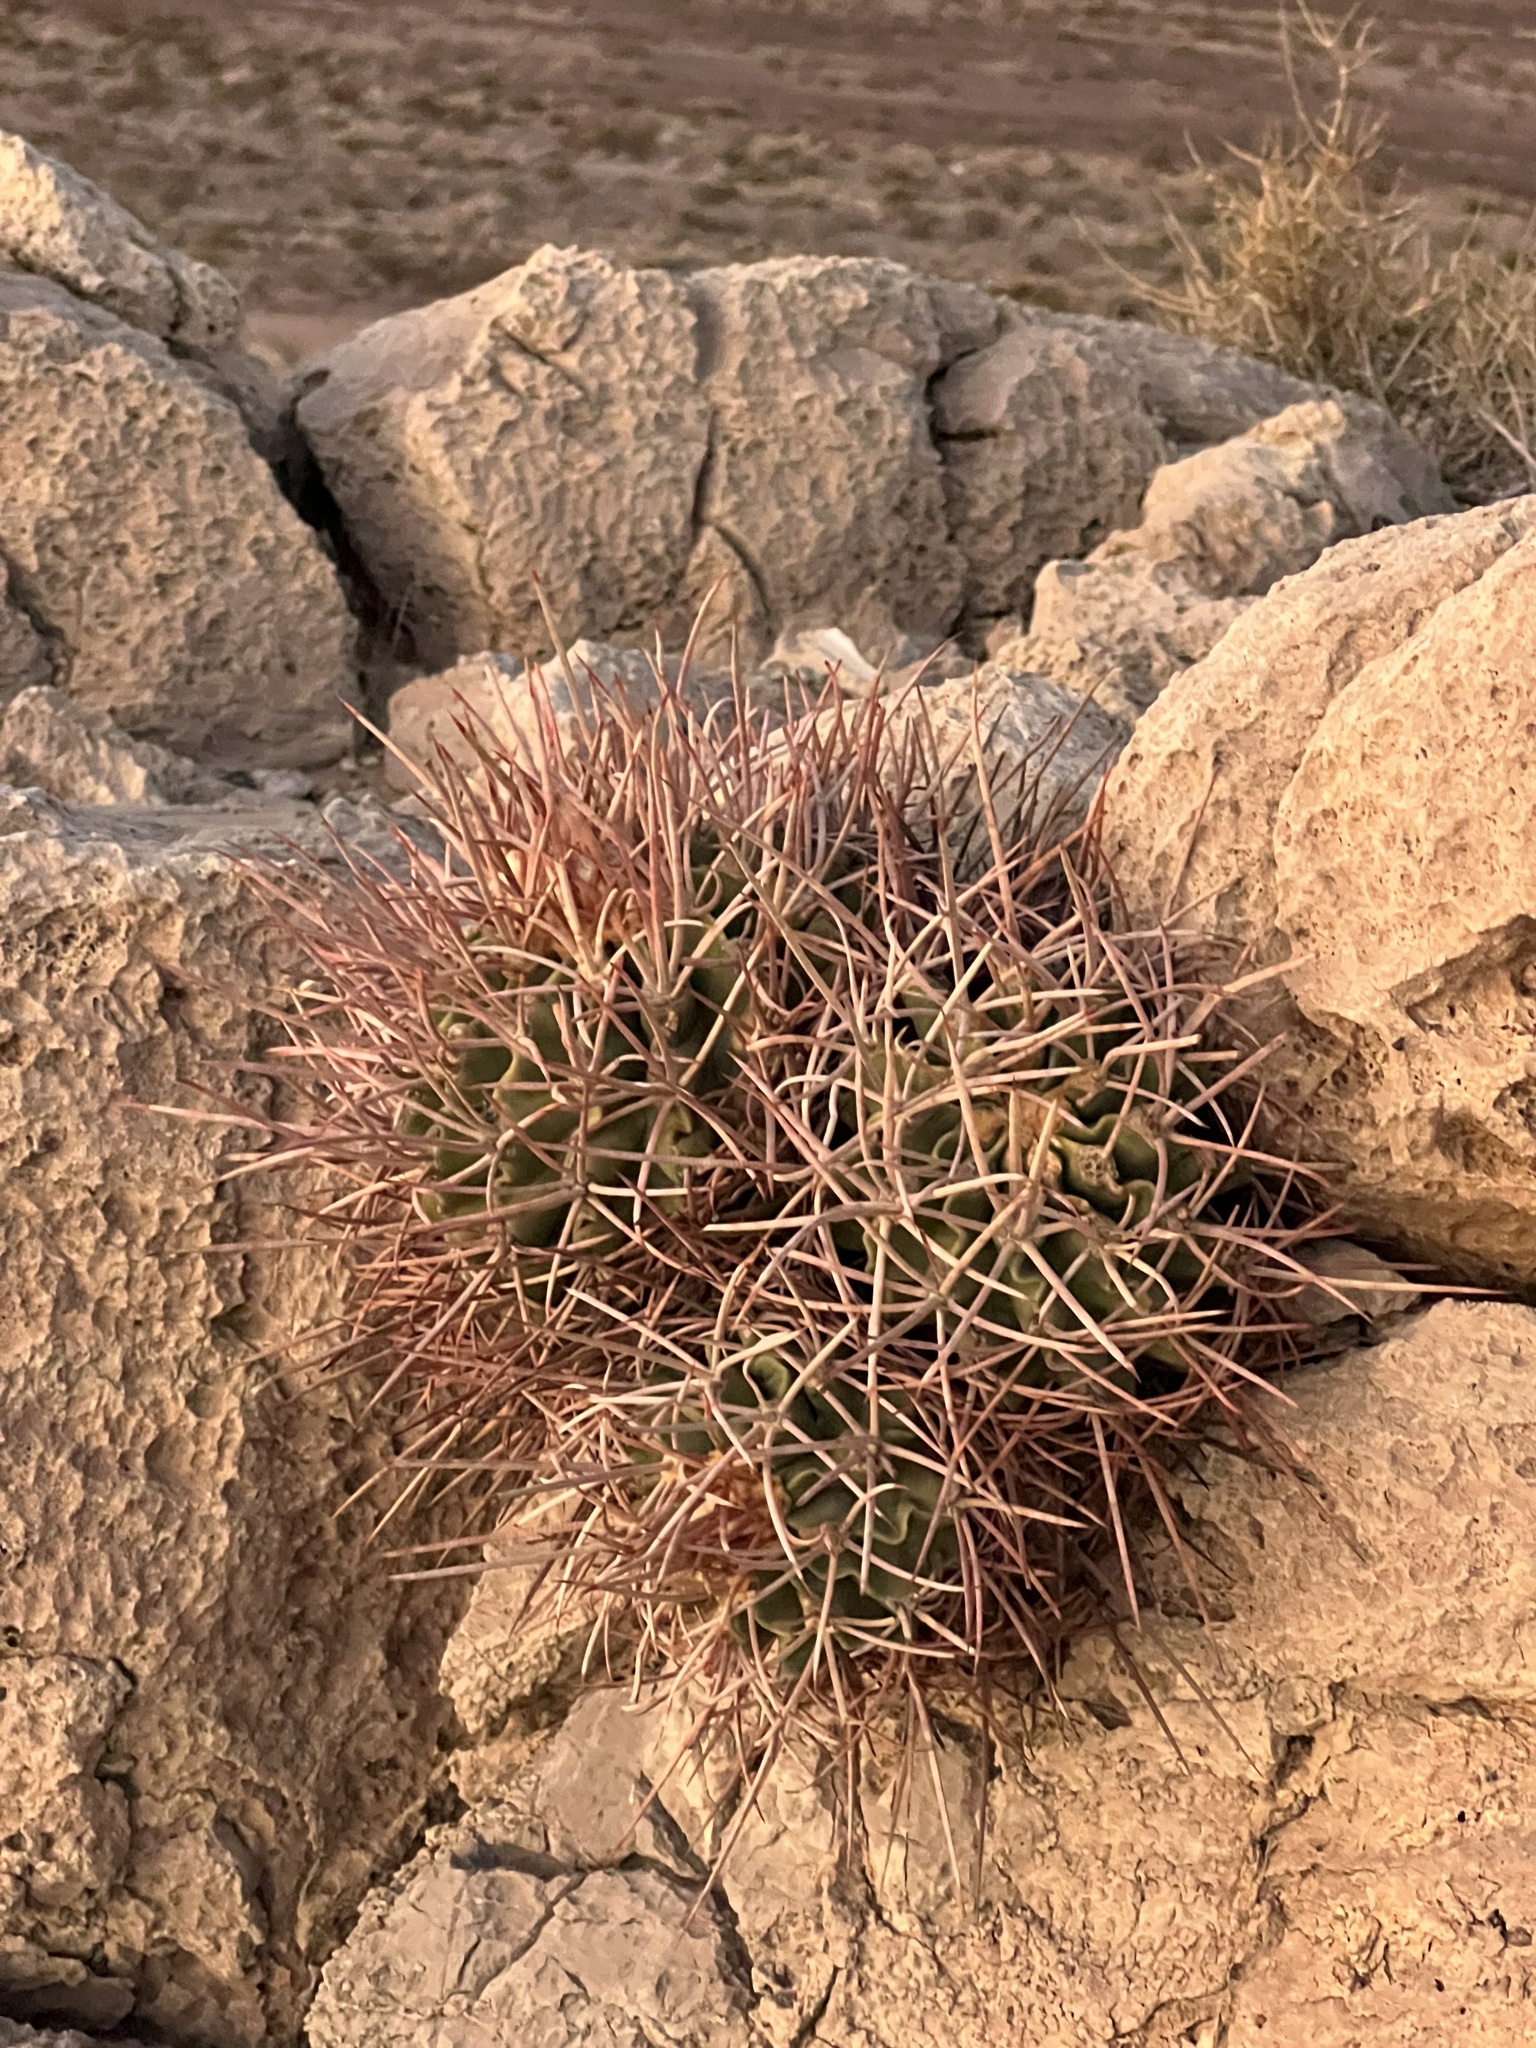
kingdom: Plantae
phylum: Tracheophyta
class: Magnoliopsida
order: Caryophyllales
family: Cactaceae
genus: Echinocactus
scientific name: Echinocactus polycephalus
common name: Cottontop cactus
